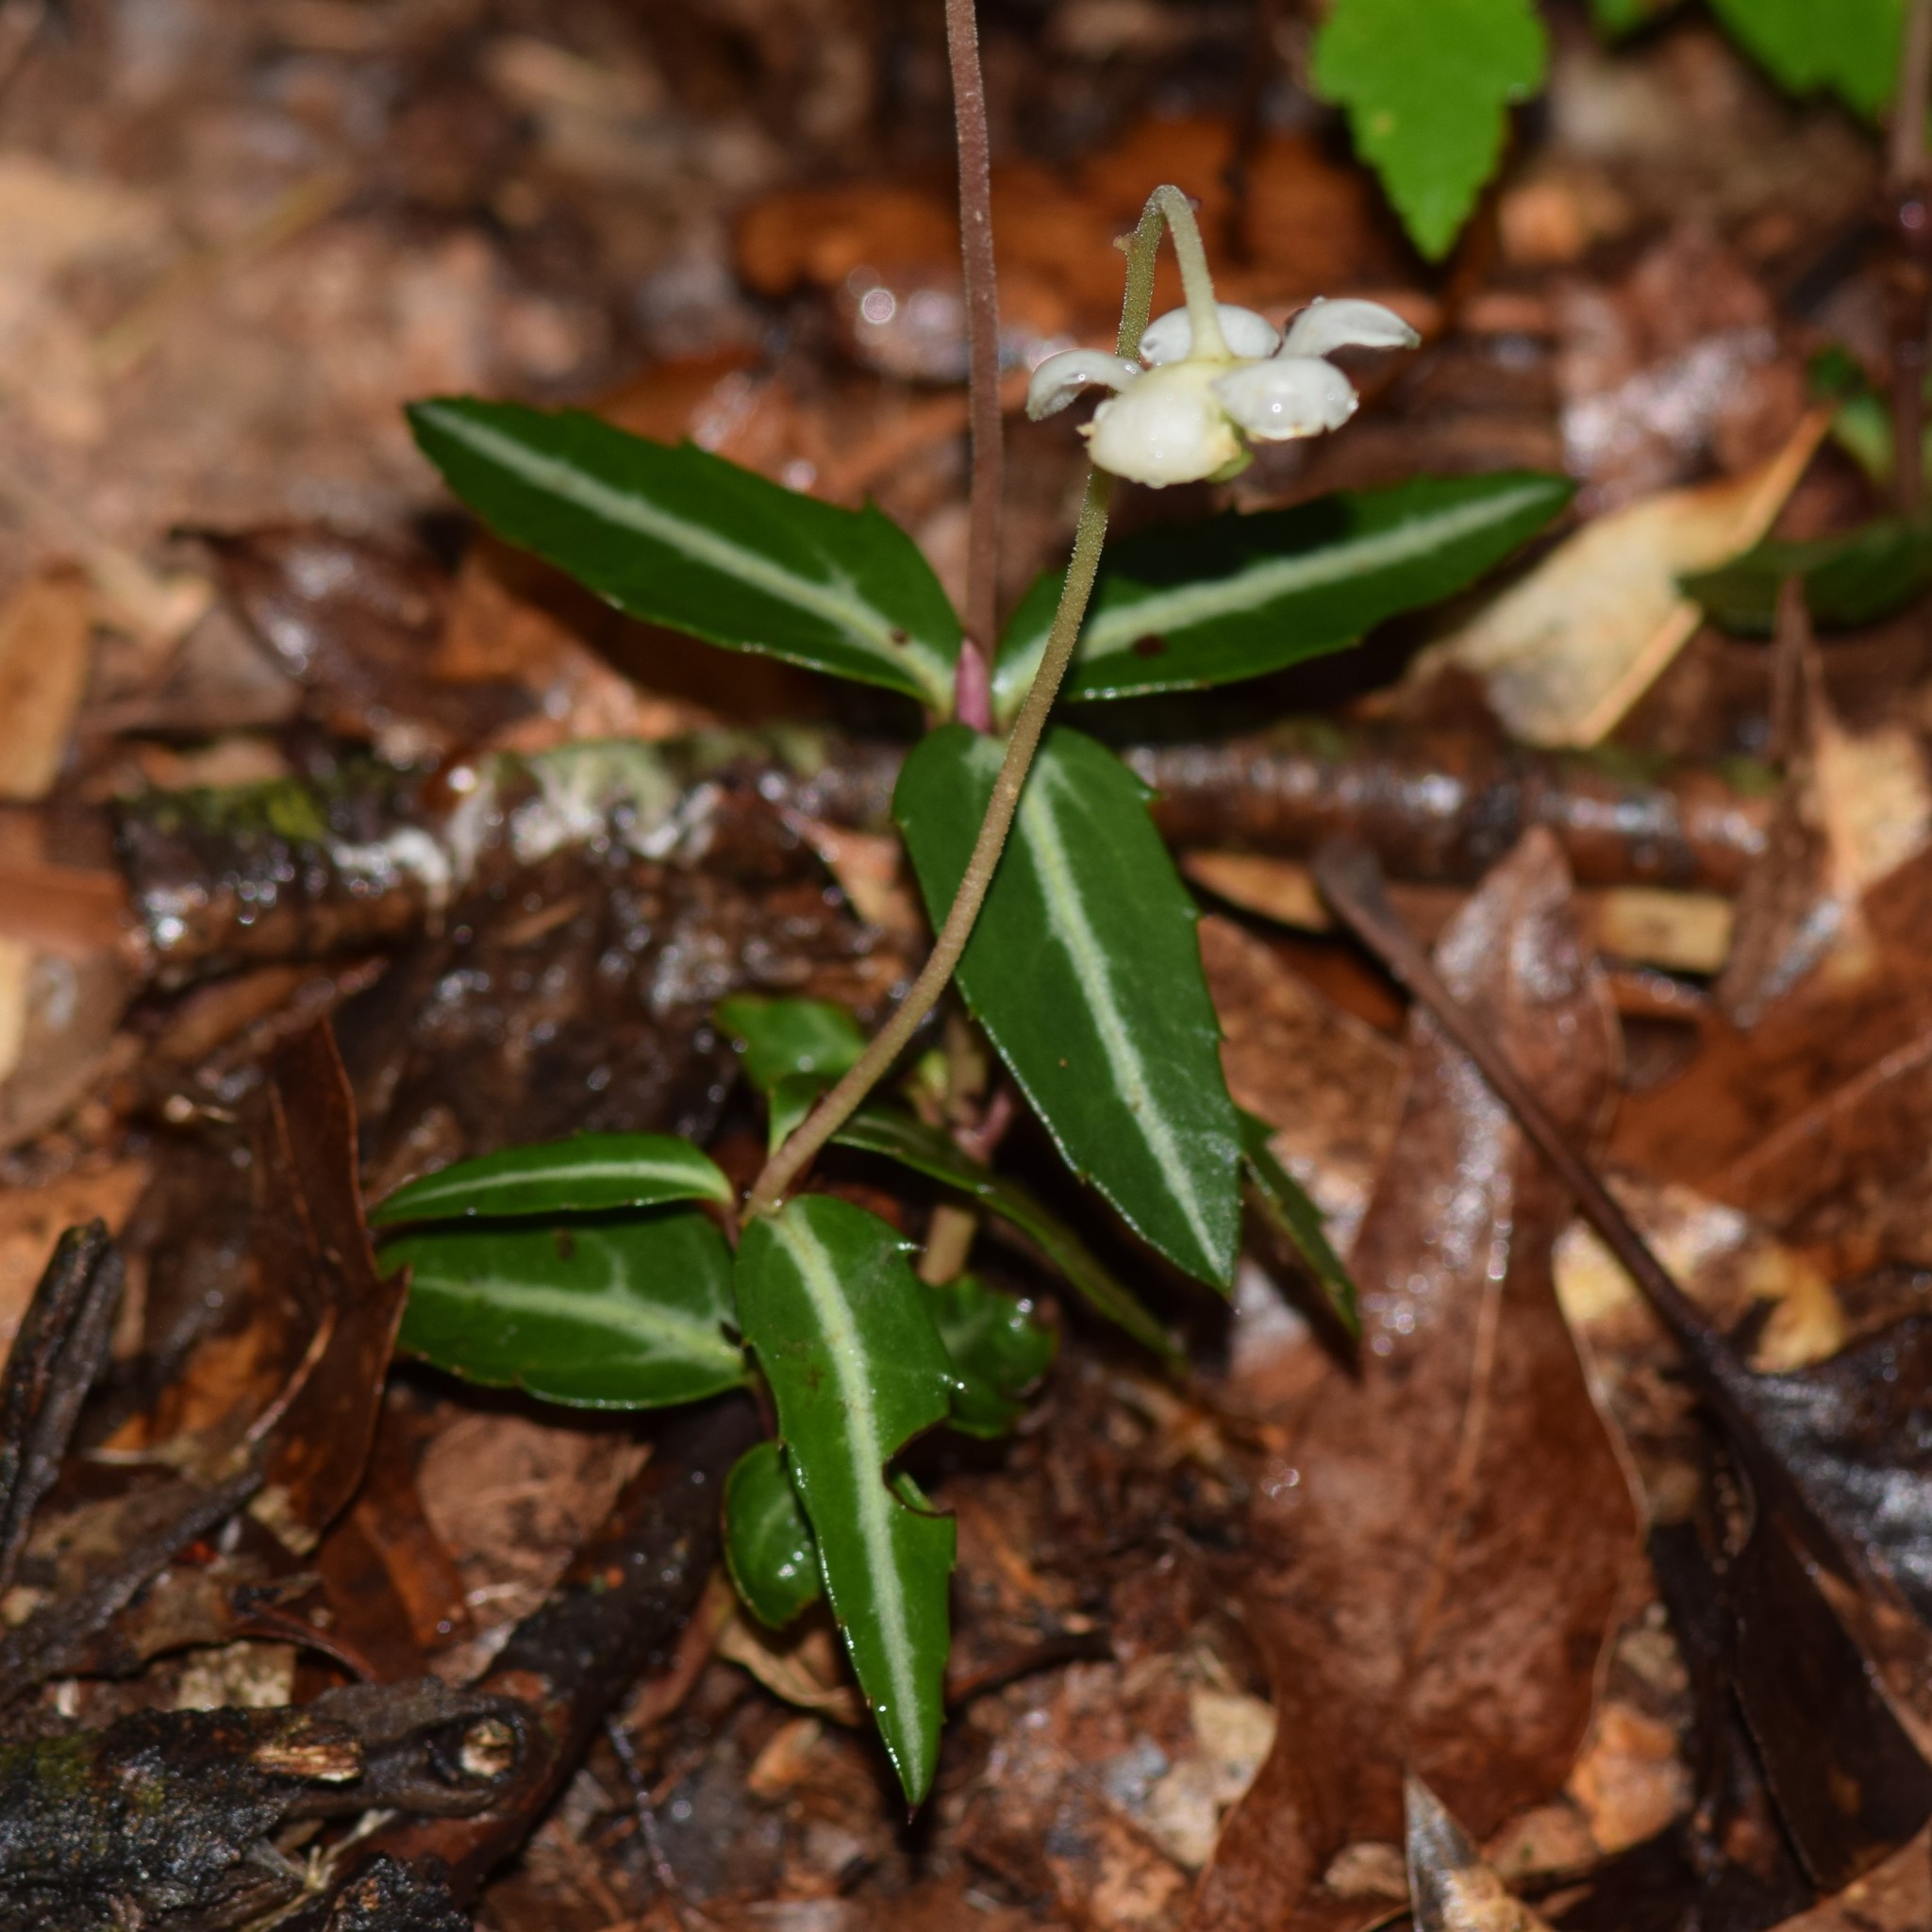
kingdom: Plantae
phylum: Tracheophyta
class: Magnoliopsida
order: Ericales
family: Ericaceae
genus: Chimaphila
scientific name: Chimaphila maculata
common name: Spotted pipsissewa
